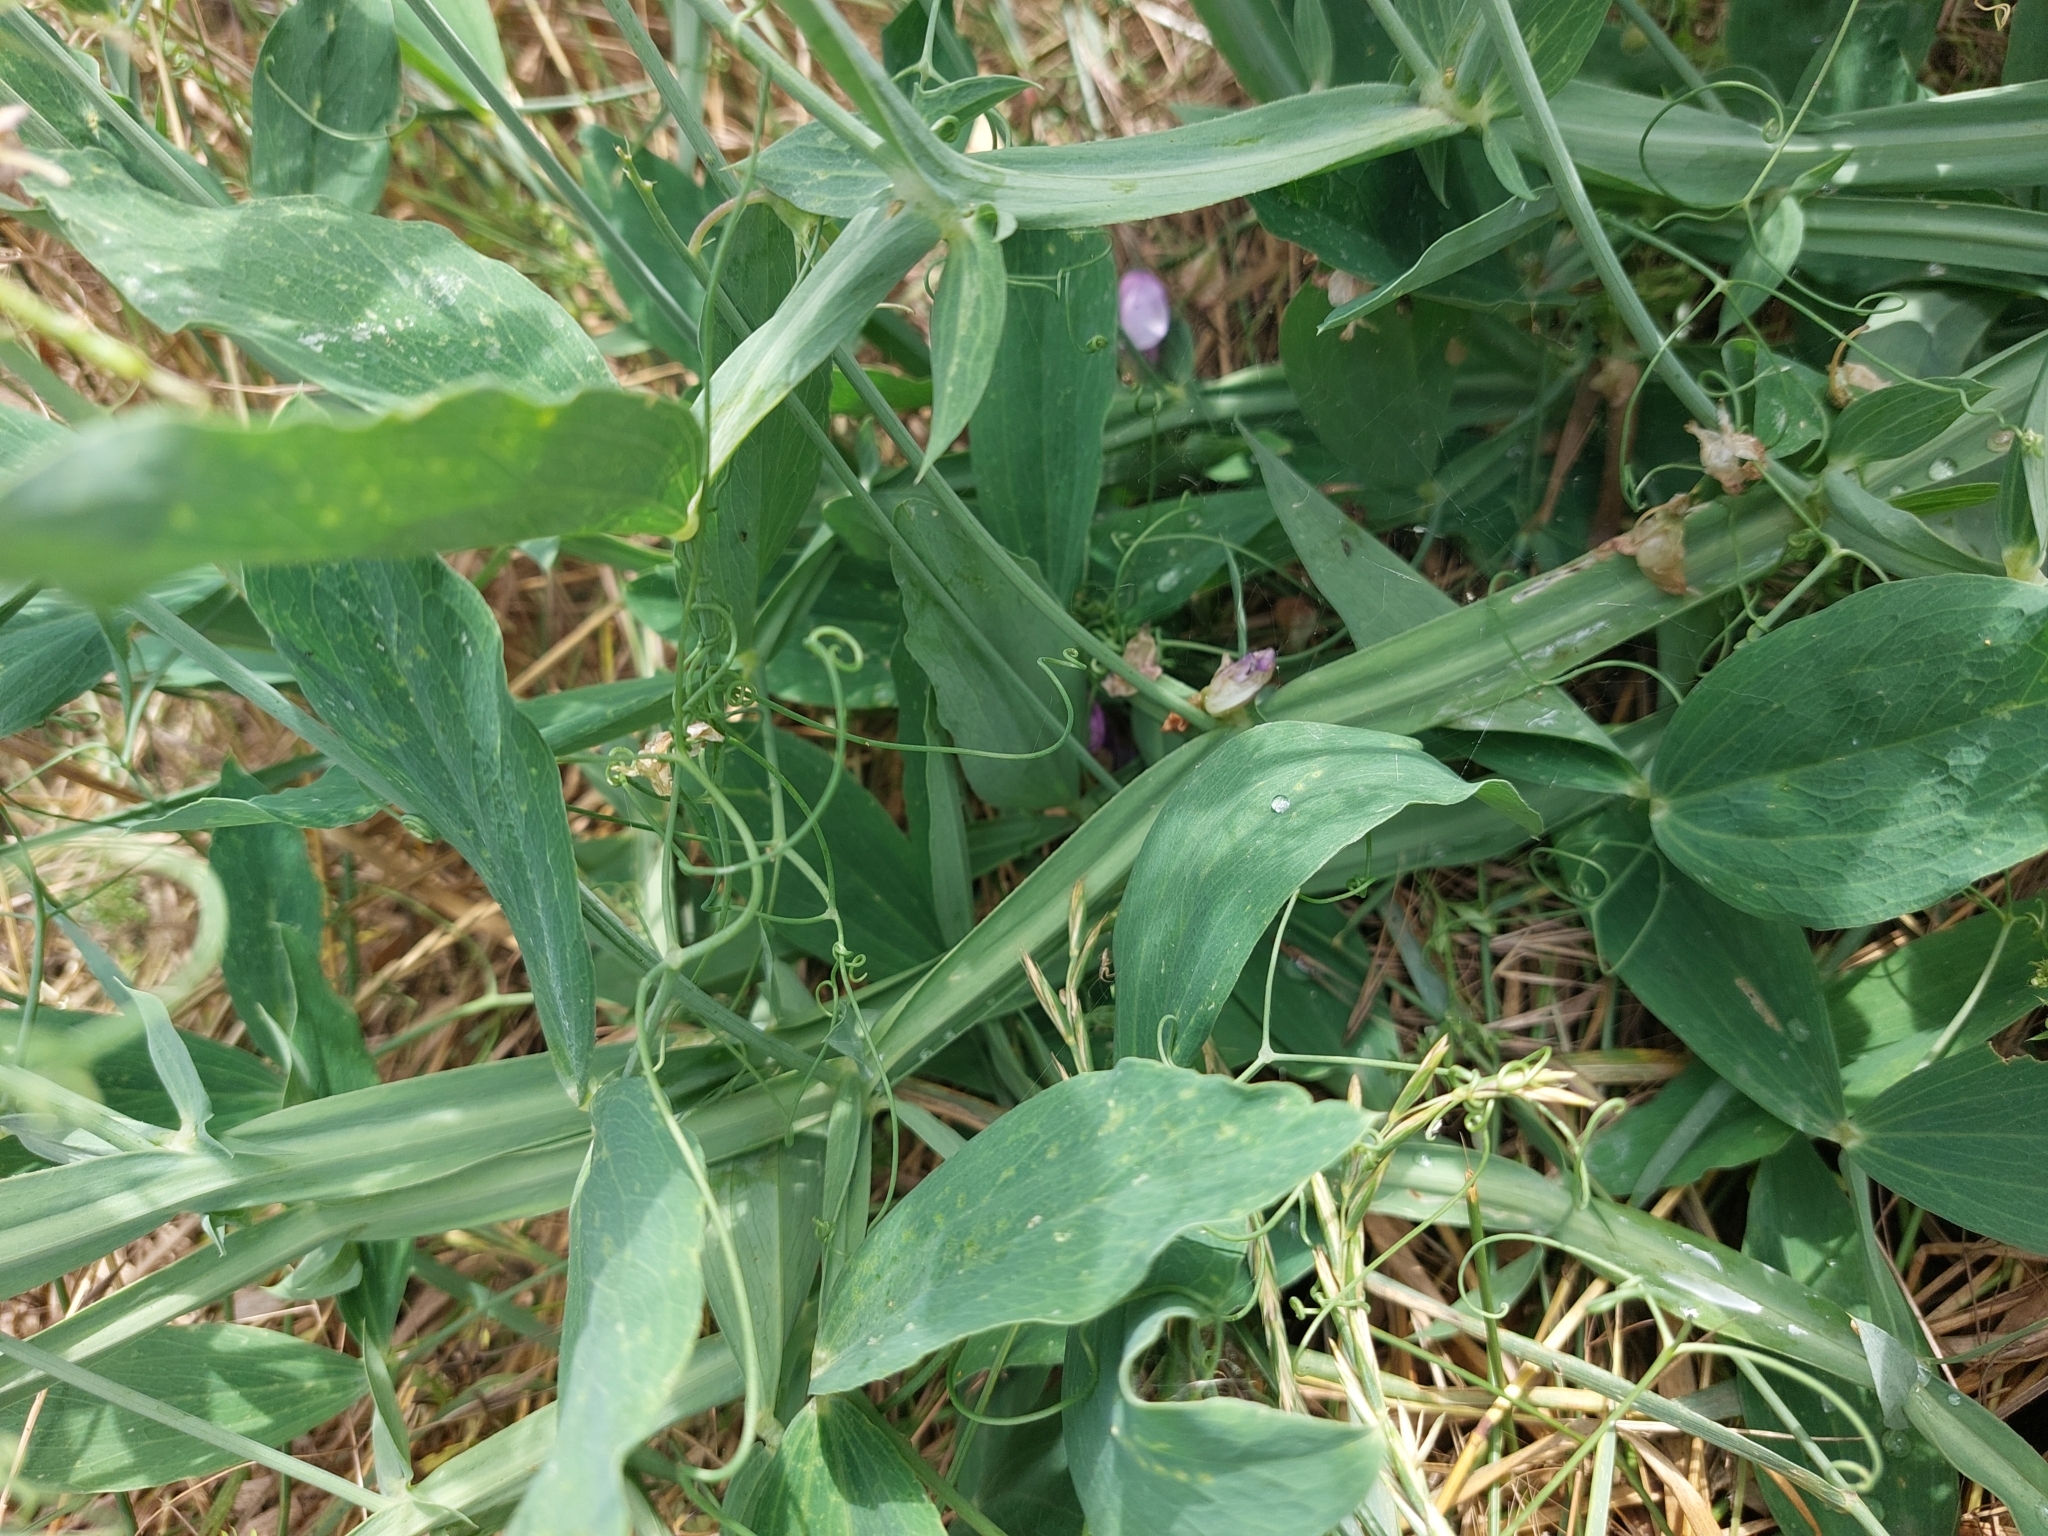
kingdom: Plantae
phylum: Tracheophyta
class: Magnoliopsida
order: Fabales
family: Fabaceae
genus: Lathyrus
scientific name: Lathyrus latifolius
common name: Perennial pea
